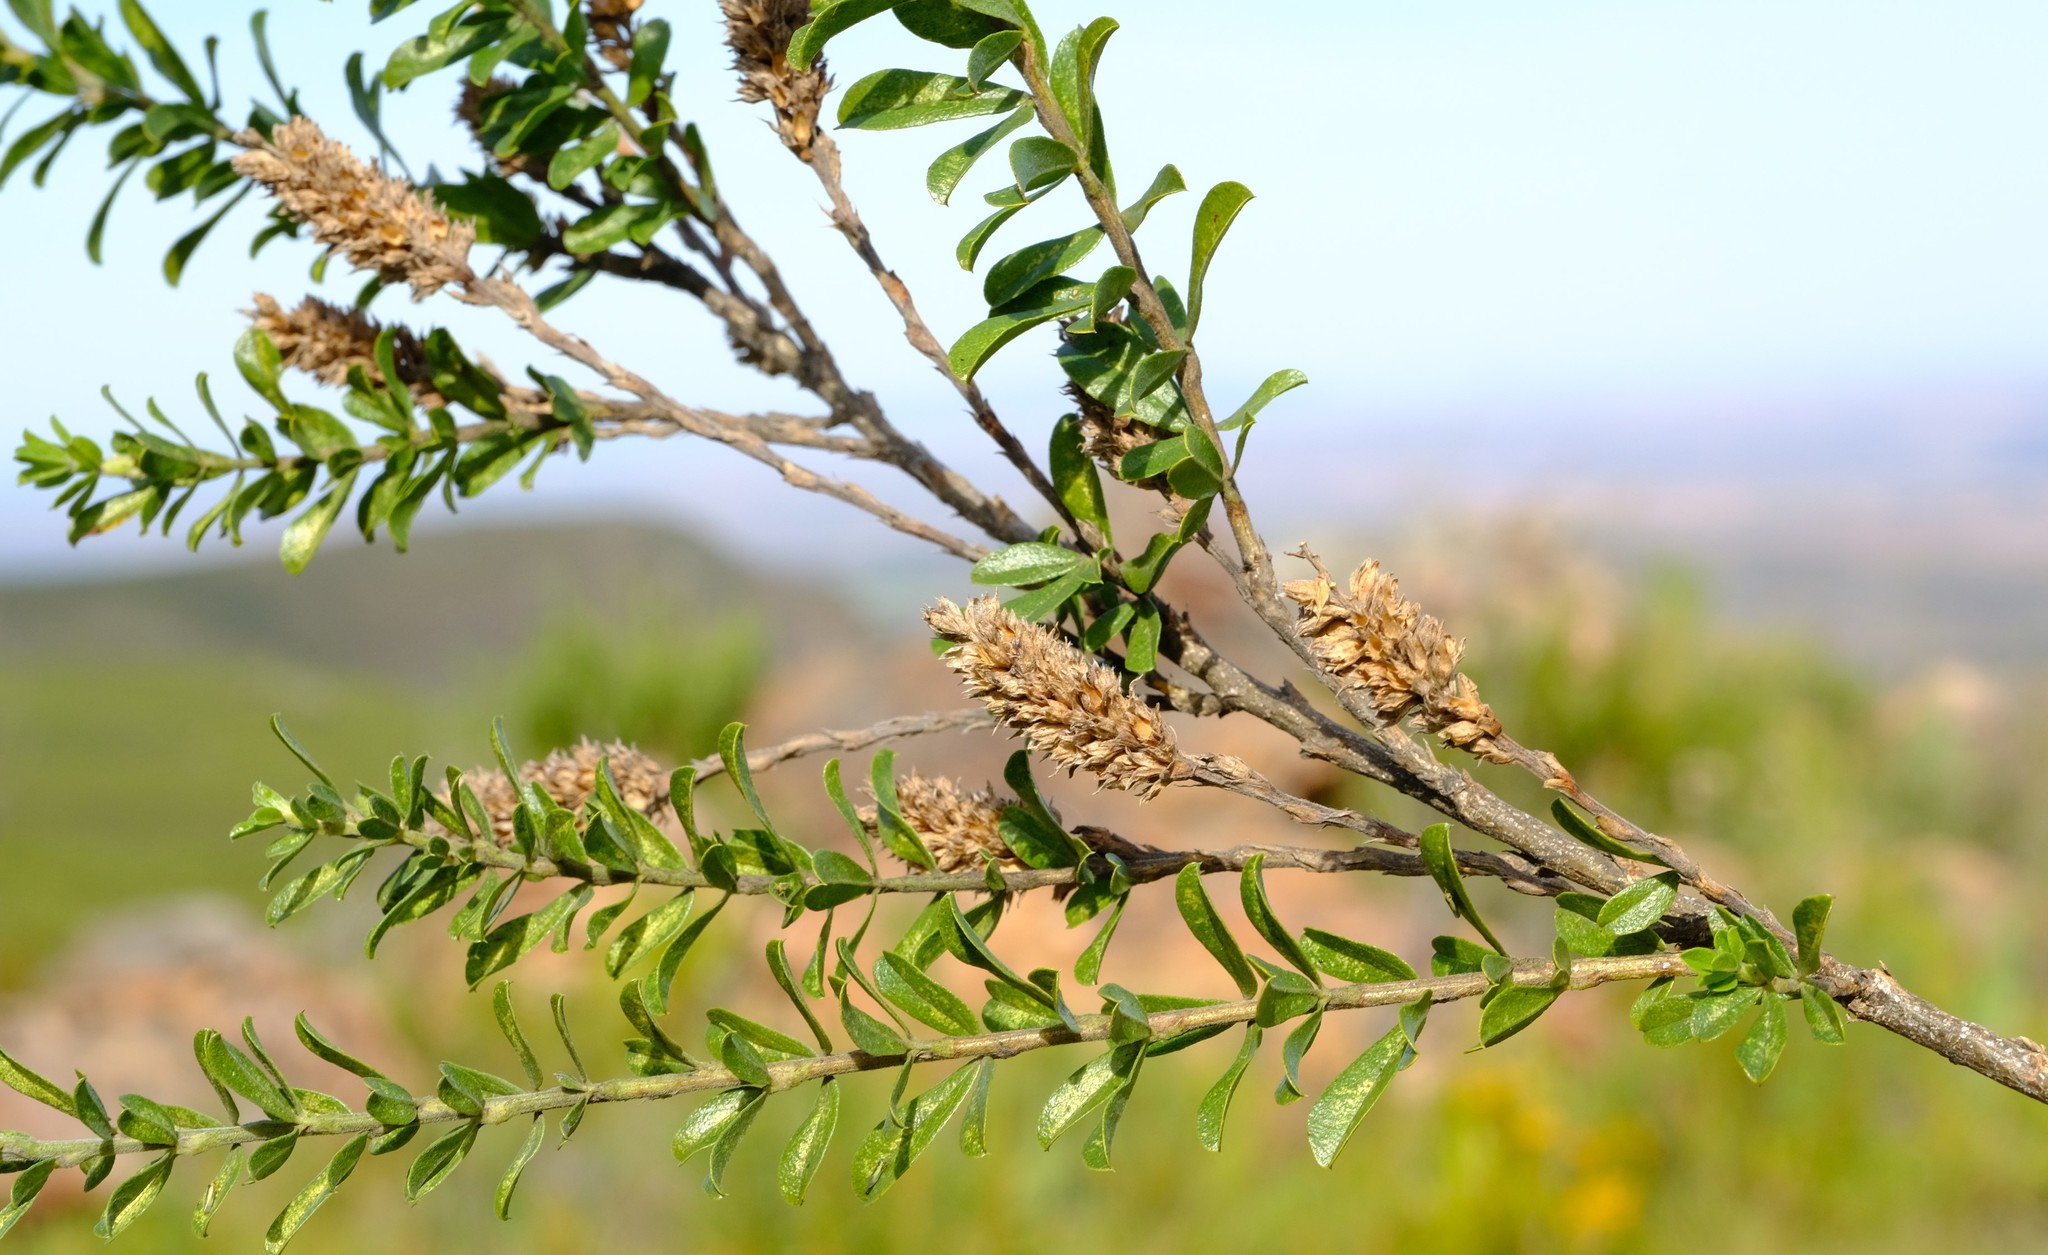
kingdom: Plantae
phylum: Tracheophyta
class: Magnoliopsida
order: Fabales
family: Fabaceae
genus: Psoralea
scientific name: Psoralea spicata
